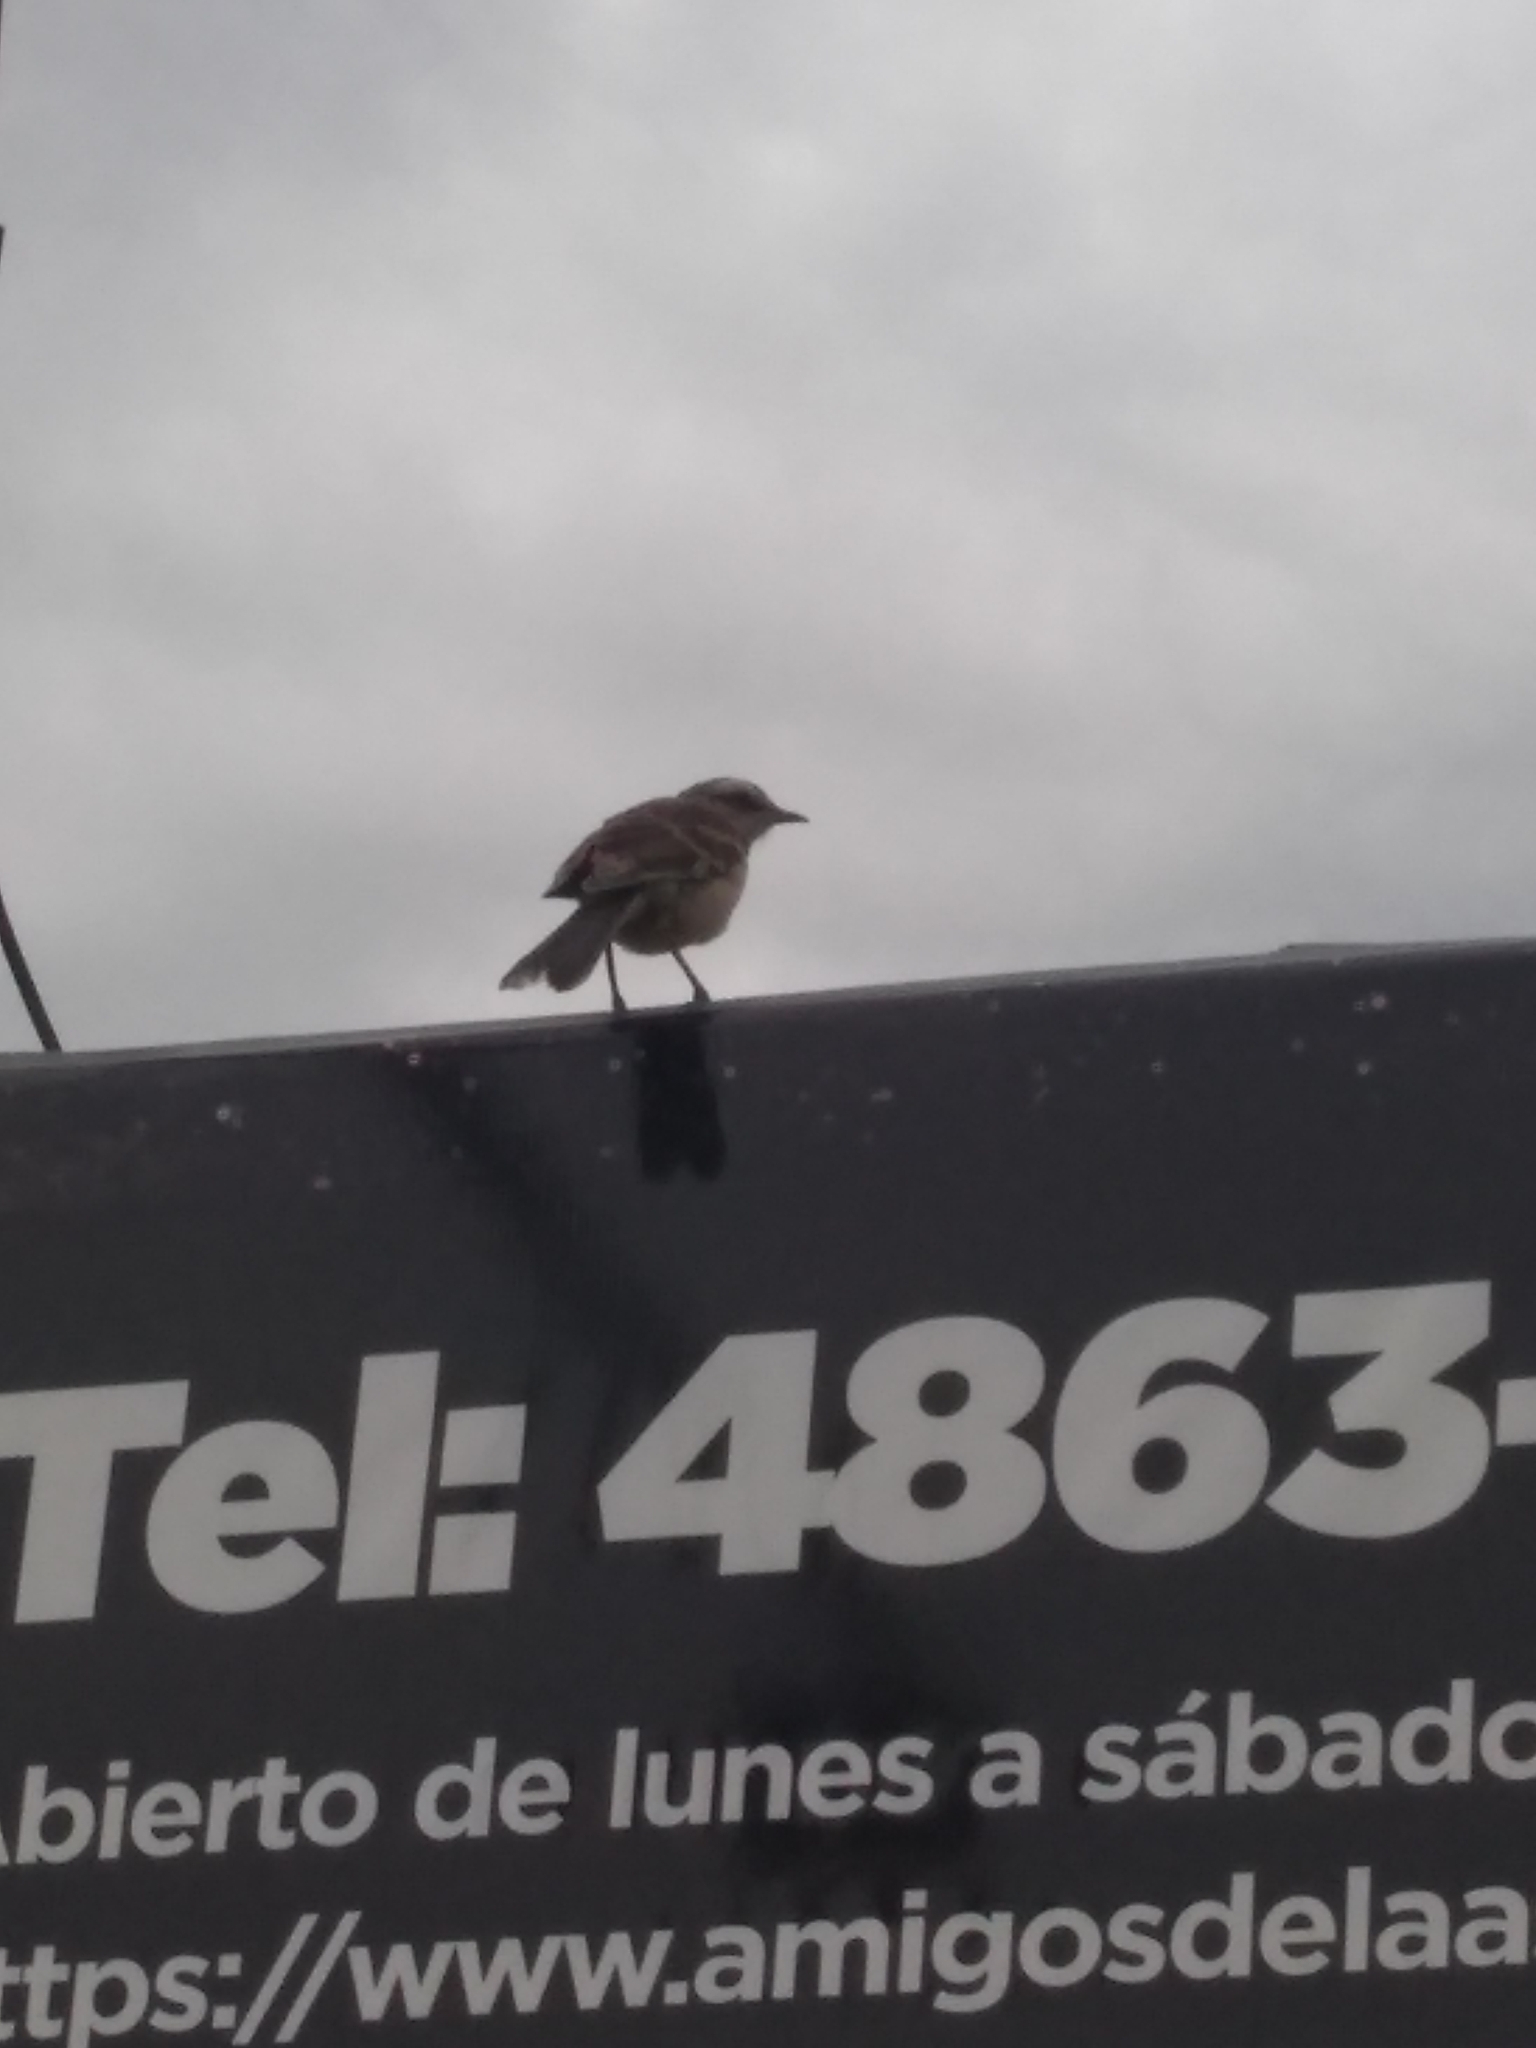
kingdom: Animalia
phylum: Chordata
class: Aves
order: Passeriformes
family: Mimidae
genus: Mimus
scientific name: Mimus saturninus
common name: Chalk-browed mockingbird
